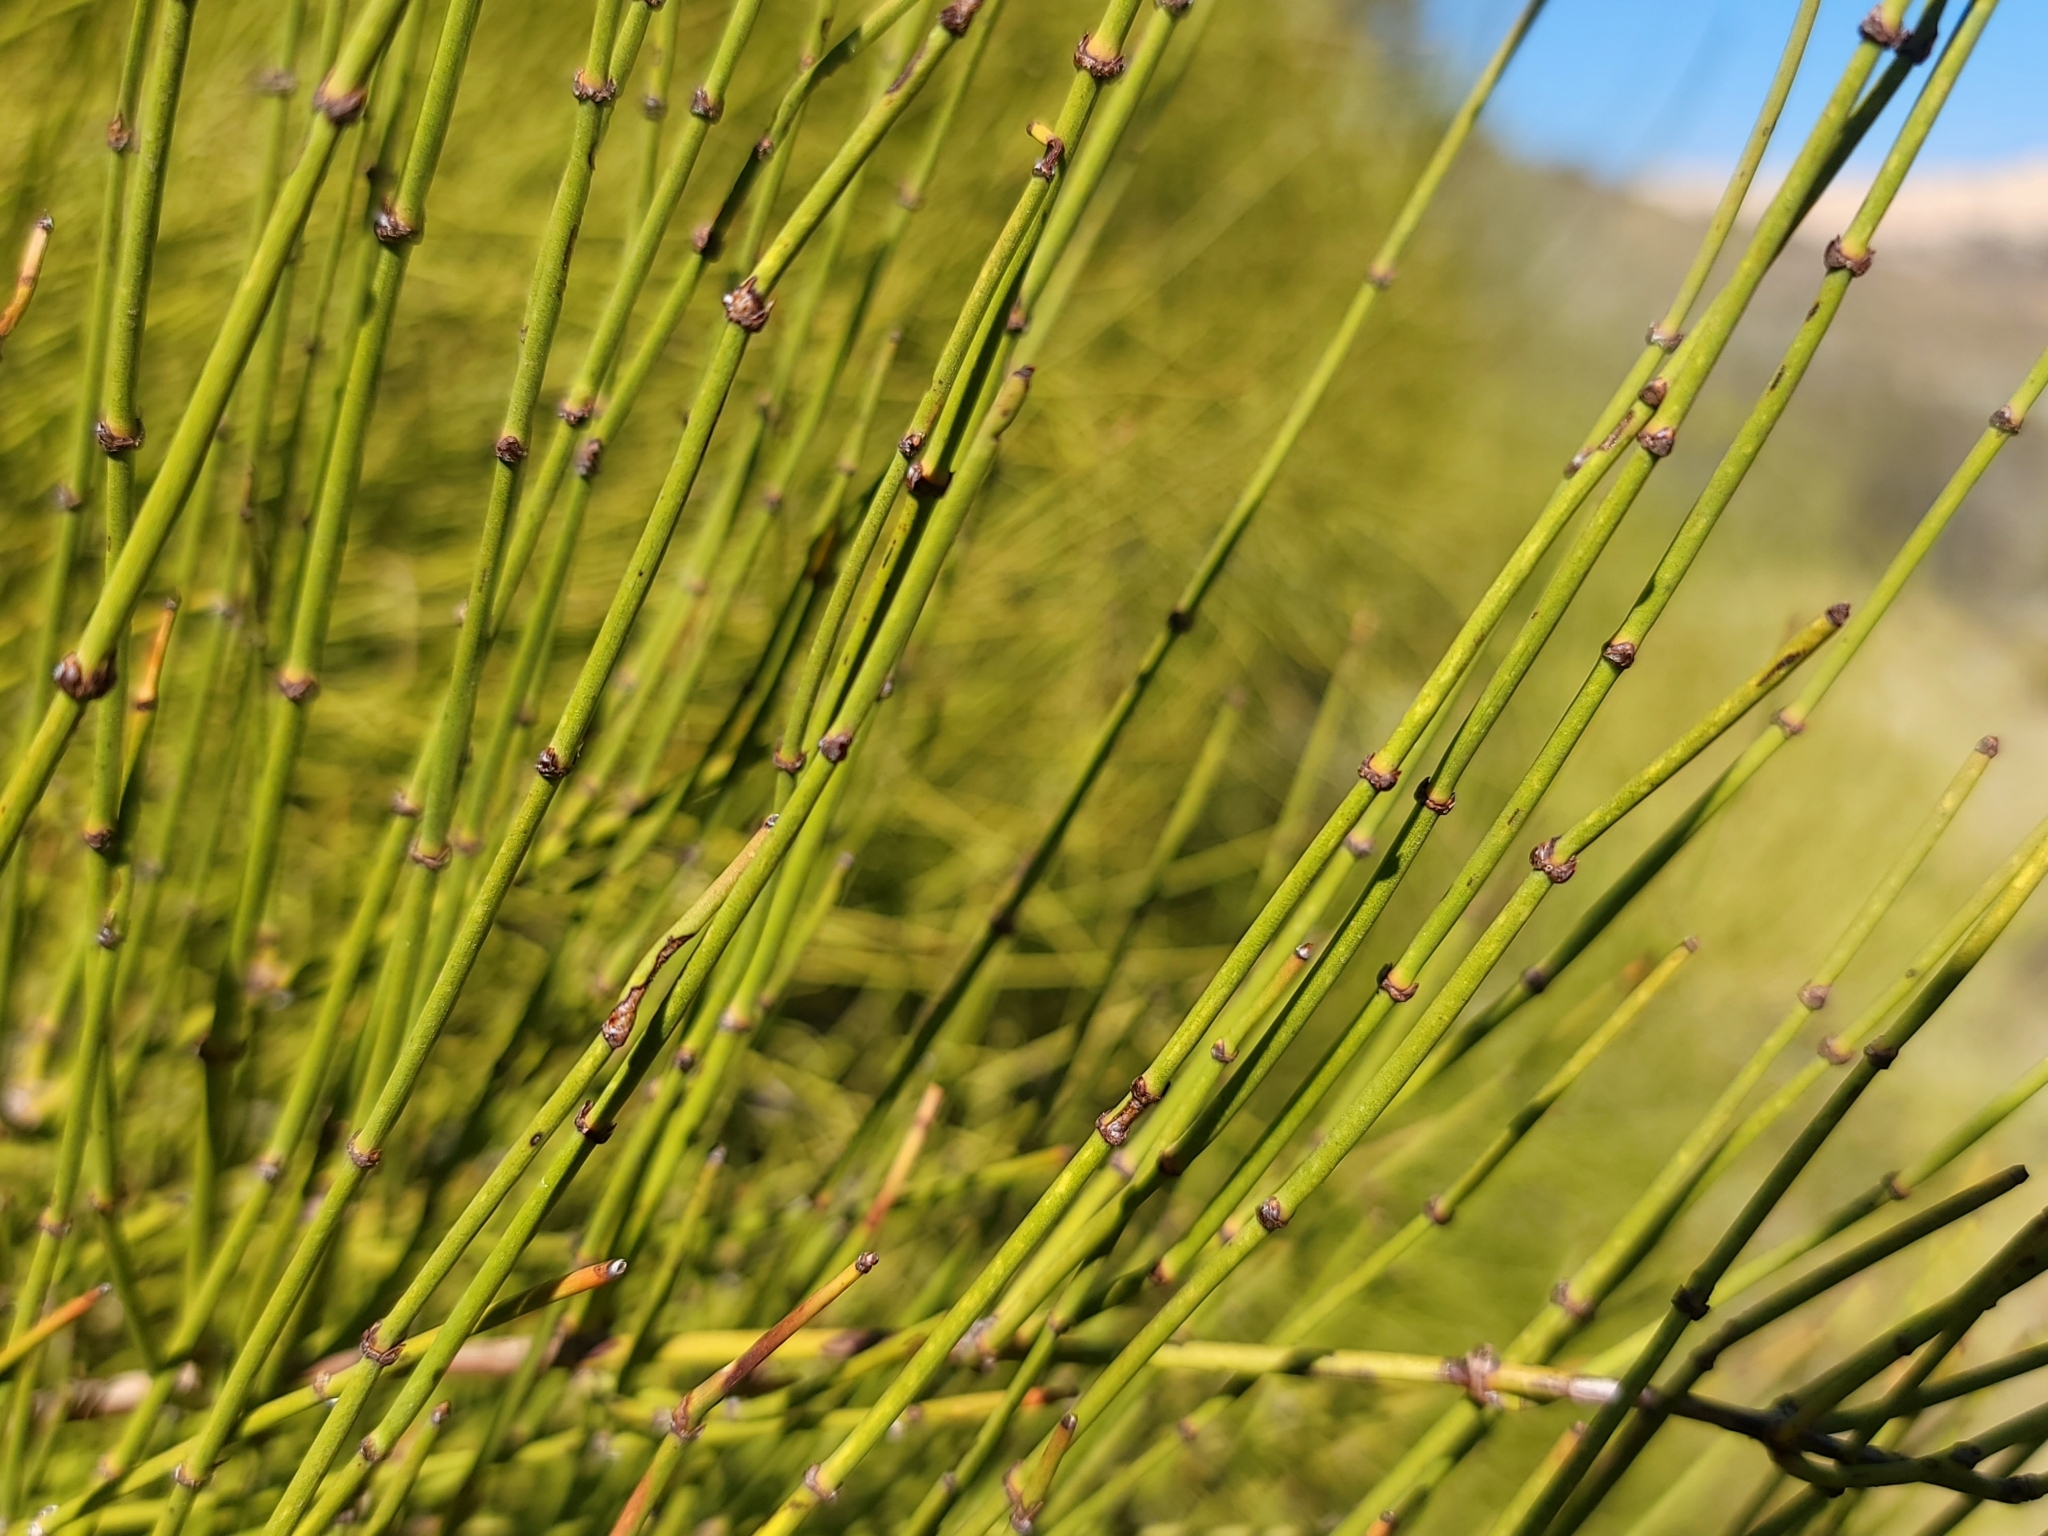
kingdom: Plantae
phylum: Tracheophyta
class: Gnetopsida
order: Ephedrales
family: Ephedraceae
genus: Ephedra
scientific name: Ephedra viridis
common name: Green ephedra
